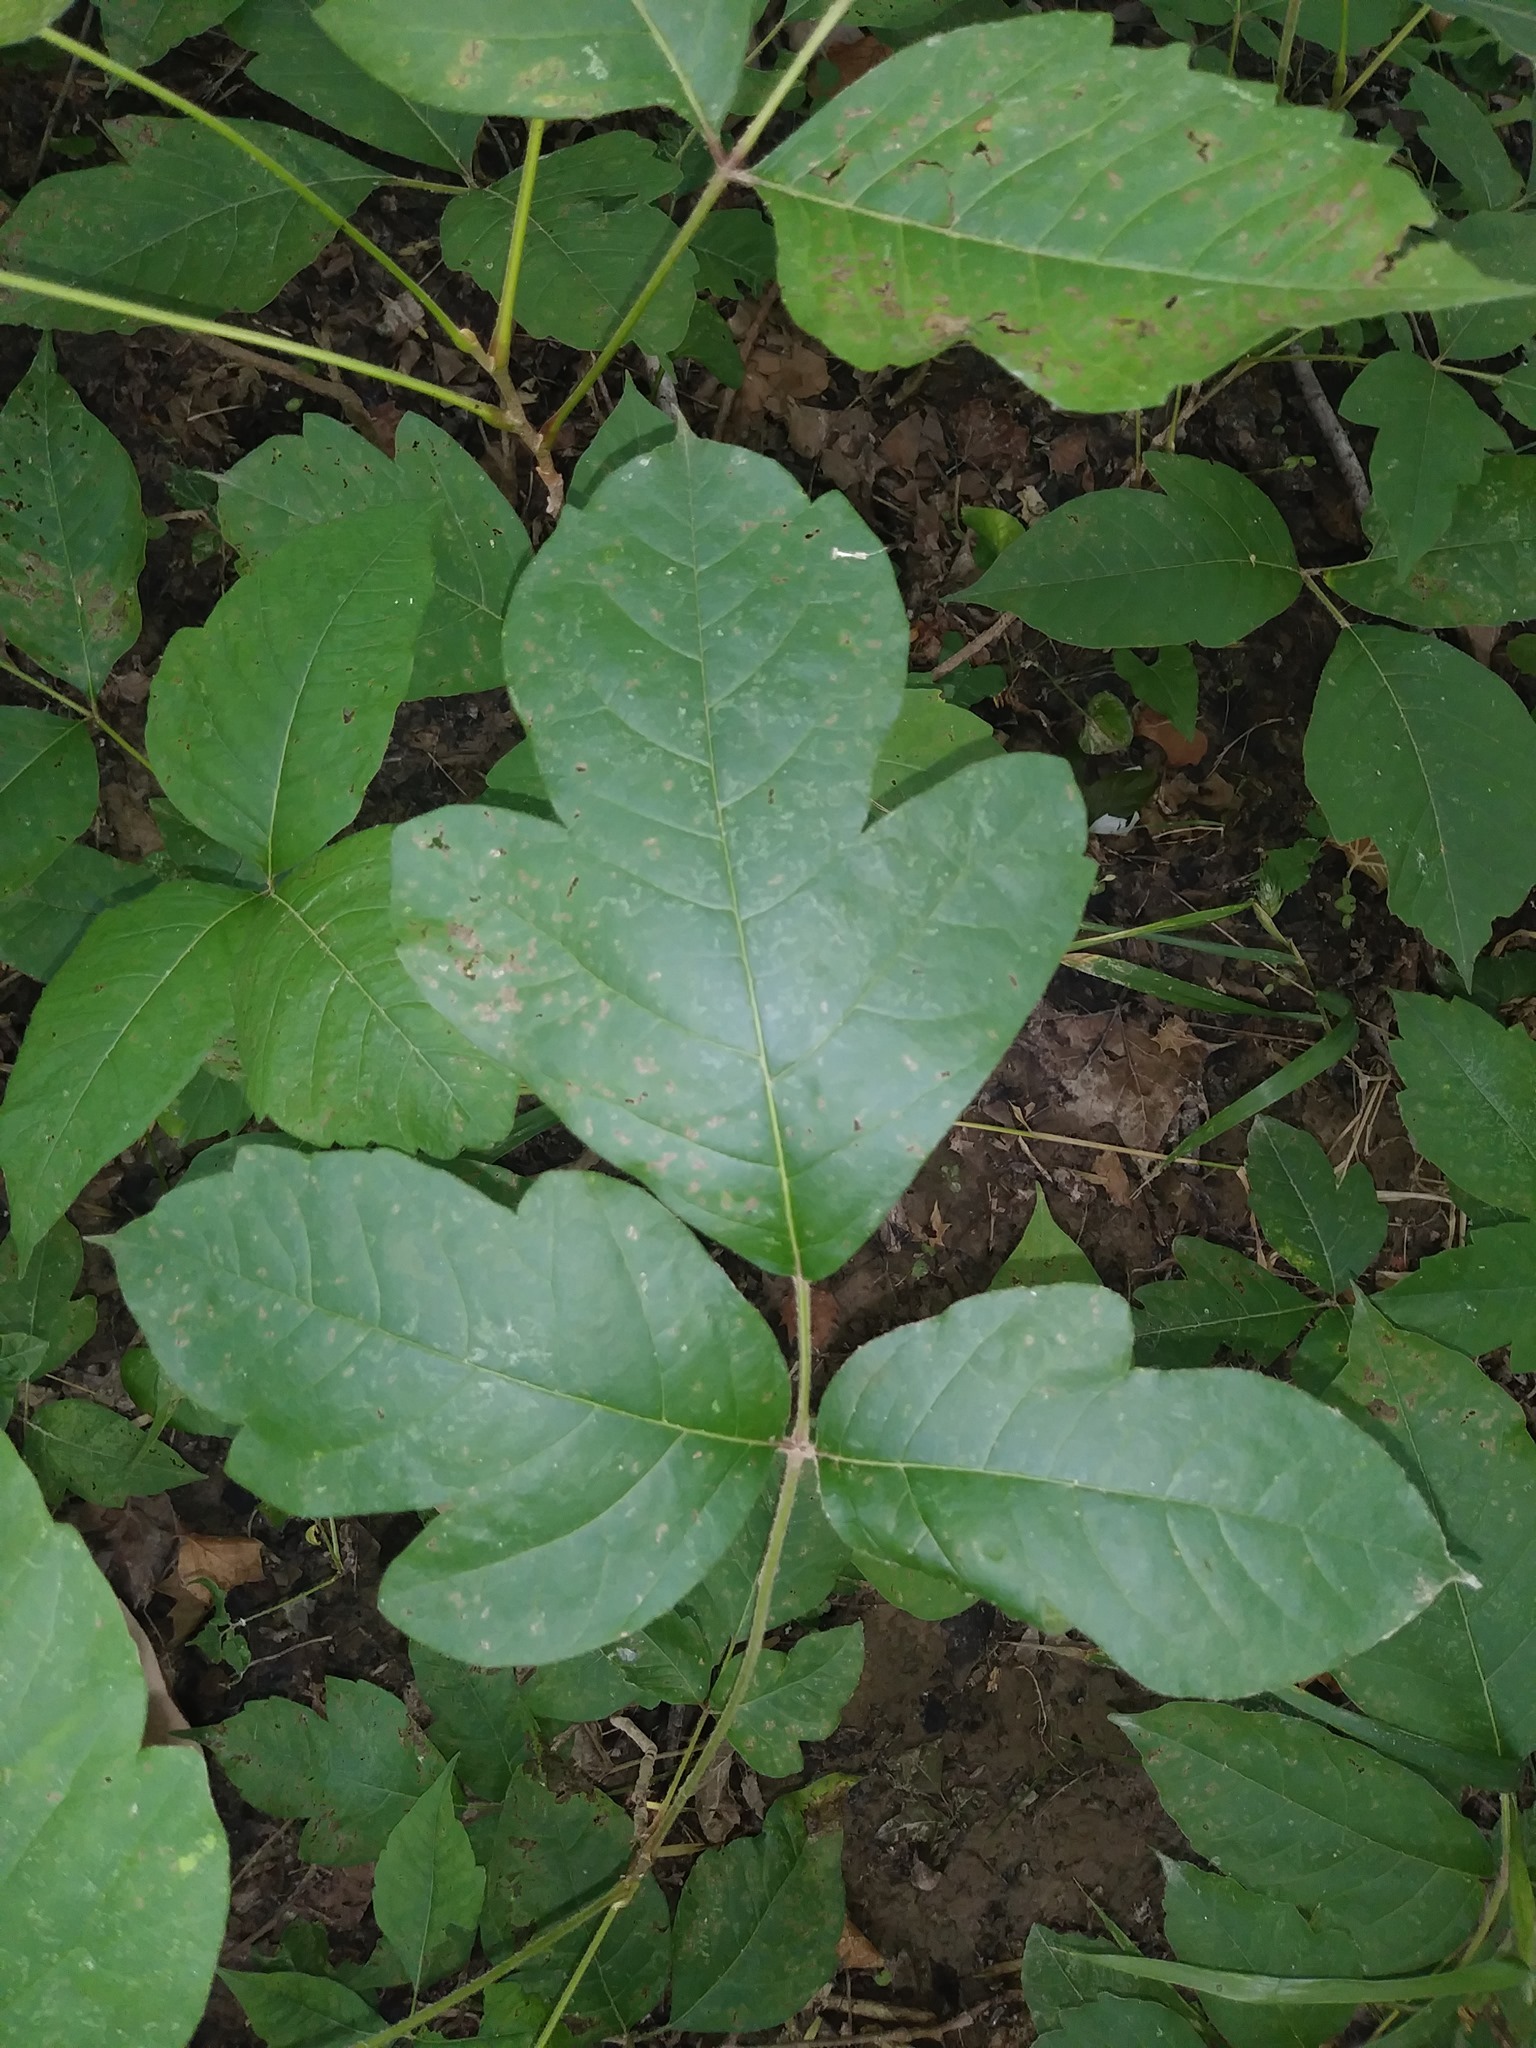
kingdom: Plantae
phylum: Tracheophyta
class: Magnoliopsida
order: Sapindales
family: Anacardiaceae
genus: Toxicodendron
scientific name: Toxicodendron radicans
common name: Poison ivy
